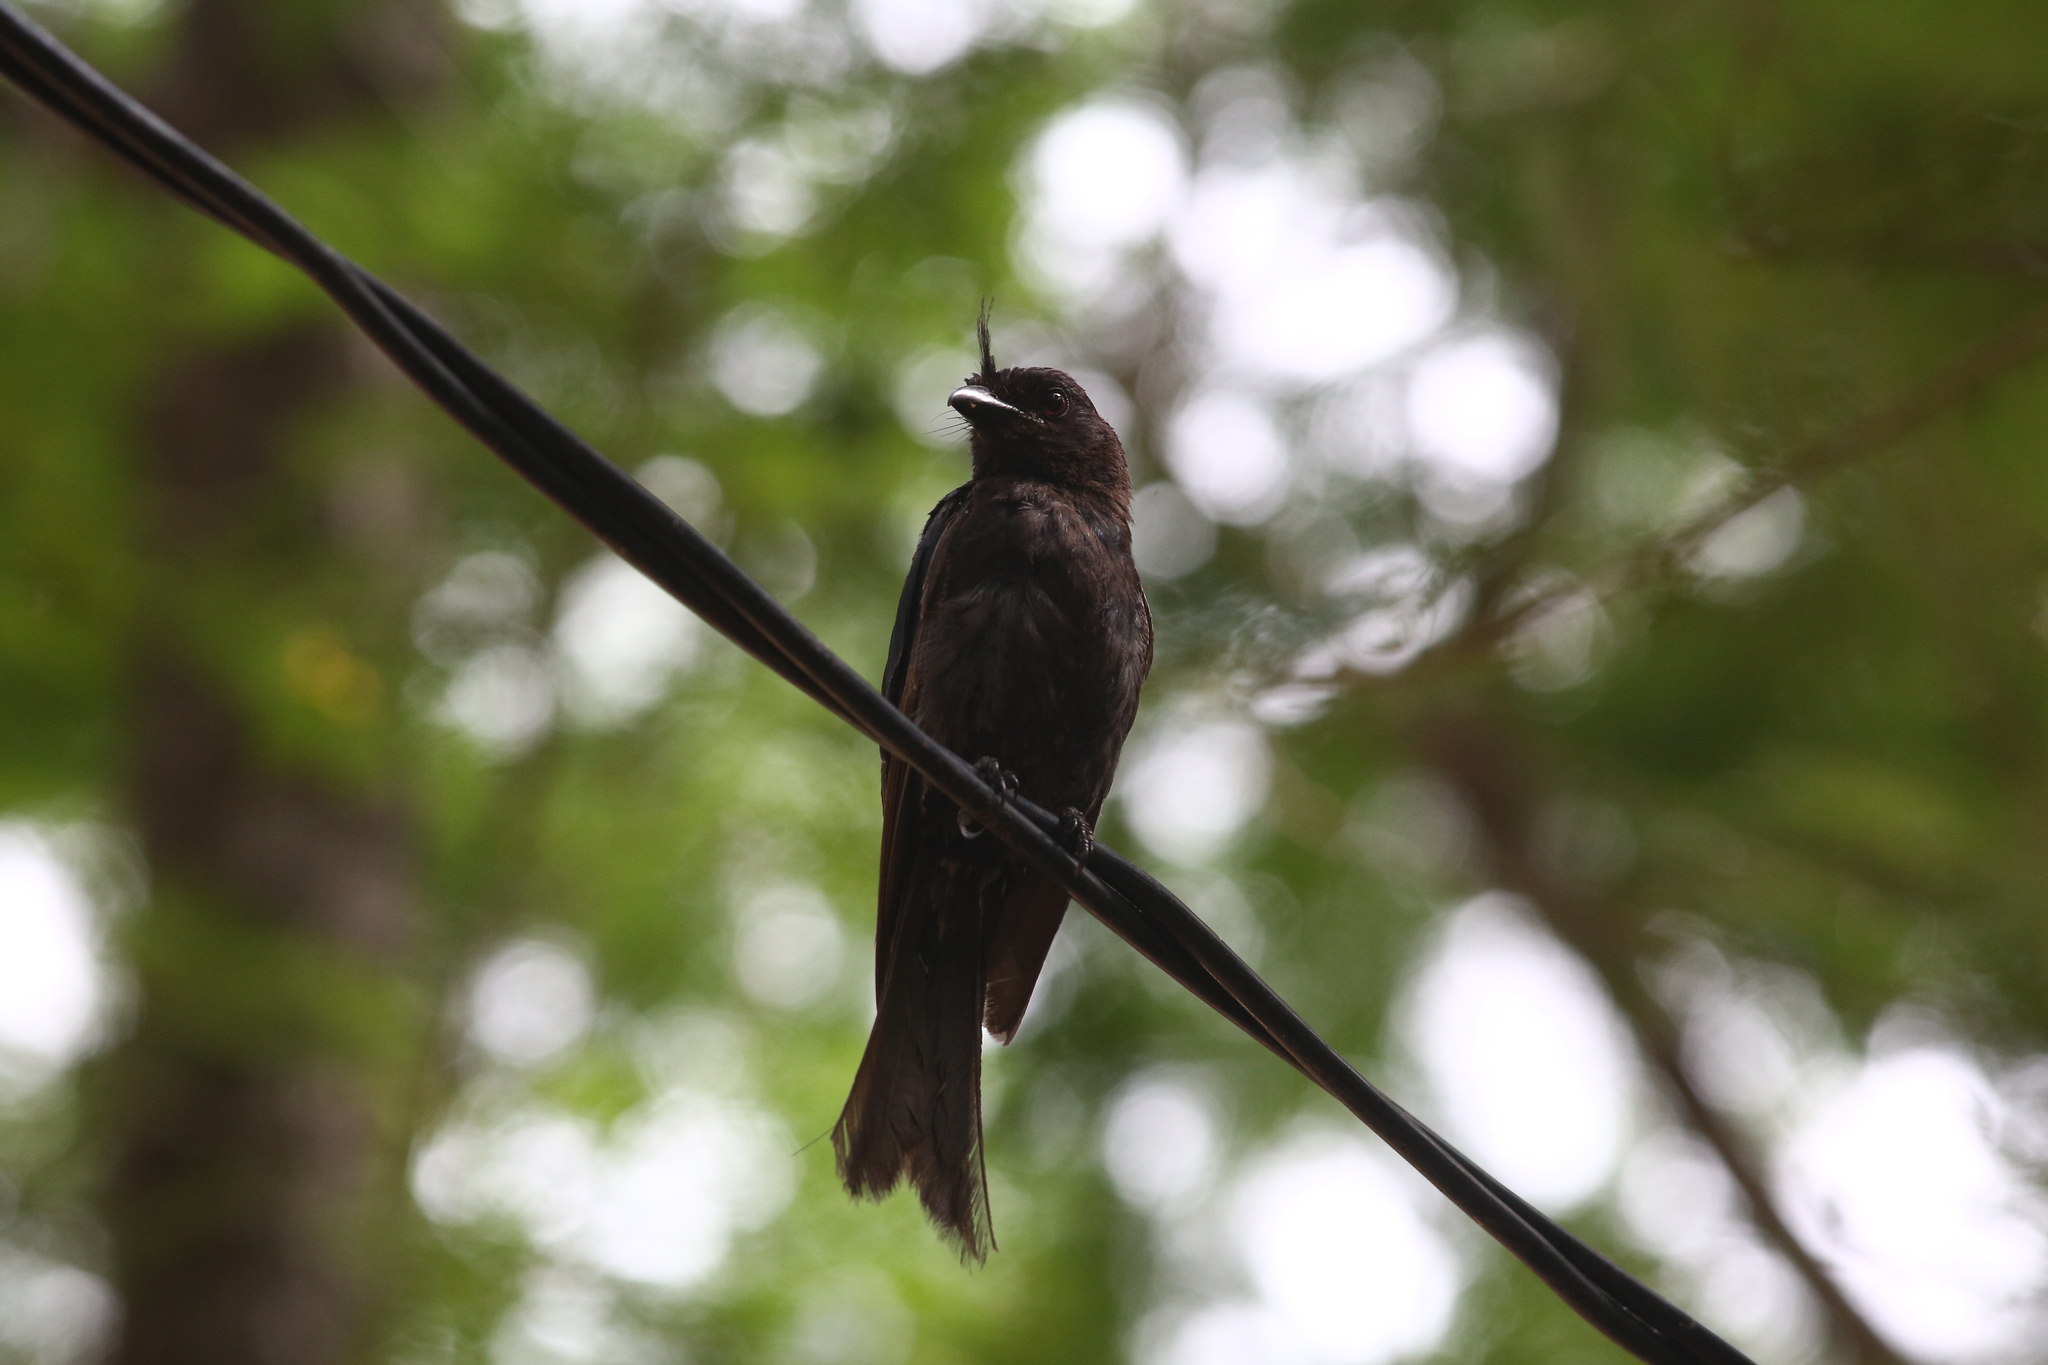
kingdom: Animalia
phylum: Chordata
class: Aves
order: Passeriformes
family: Dicruridae
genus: Dicrurus
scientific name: Dicrurus forficatus
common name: Crested drongo
